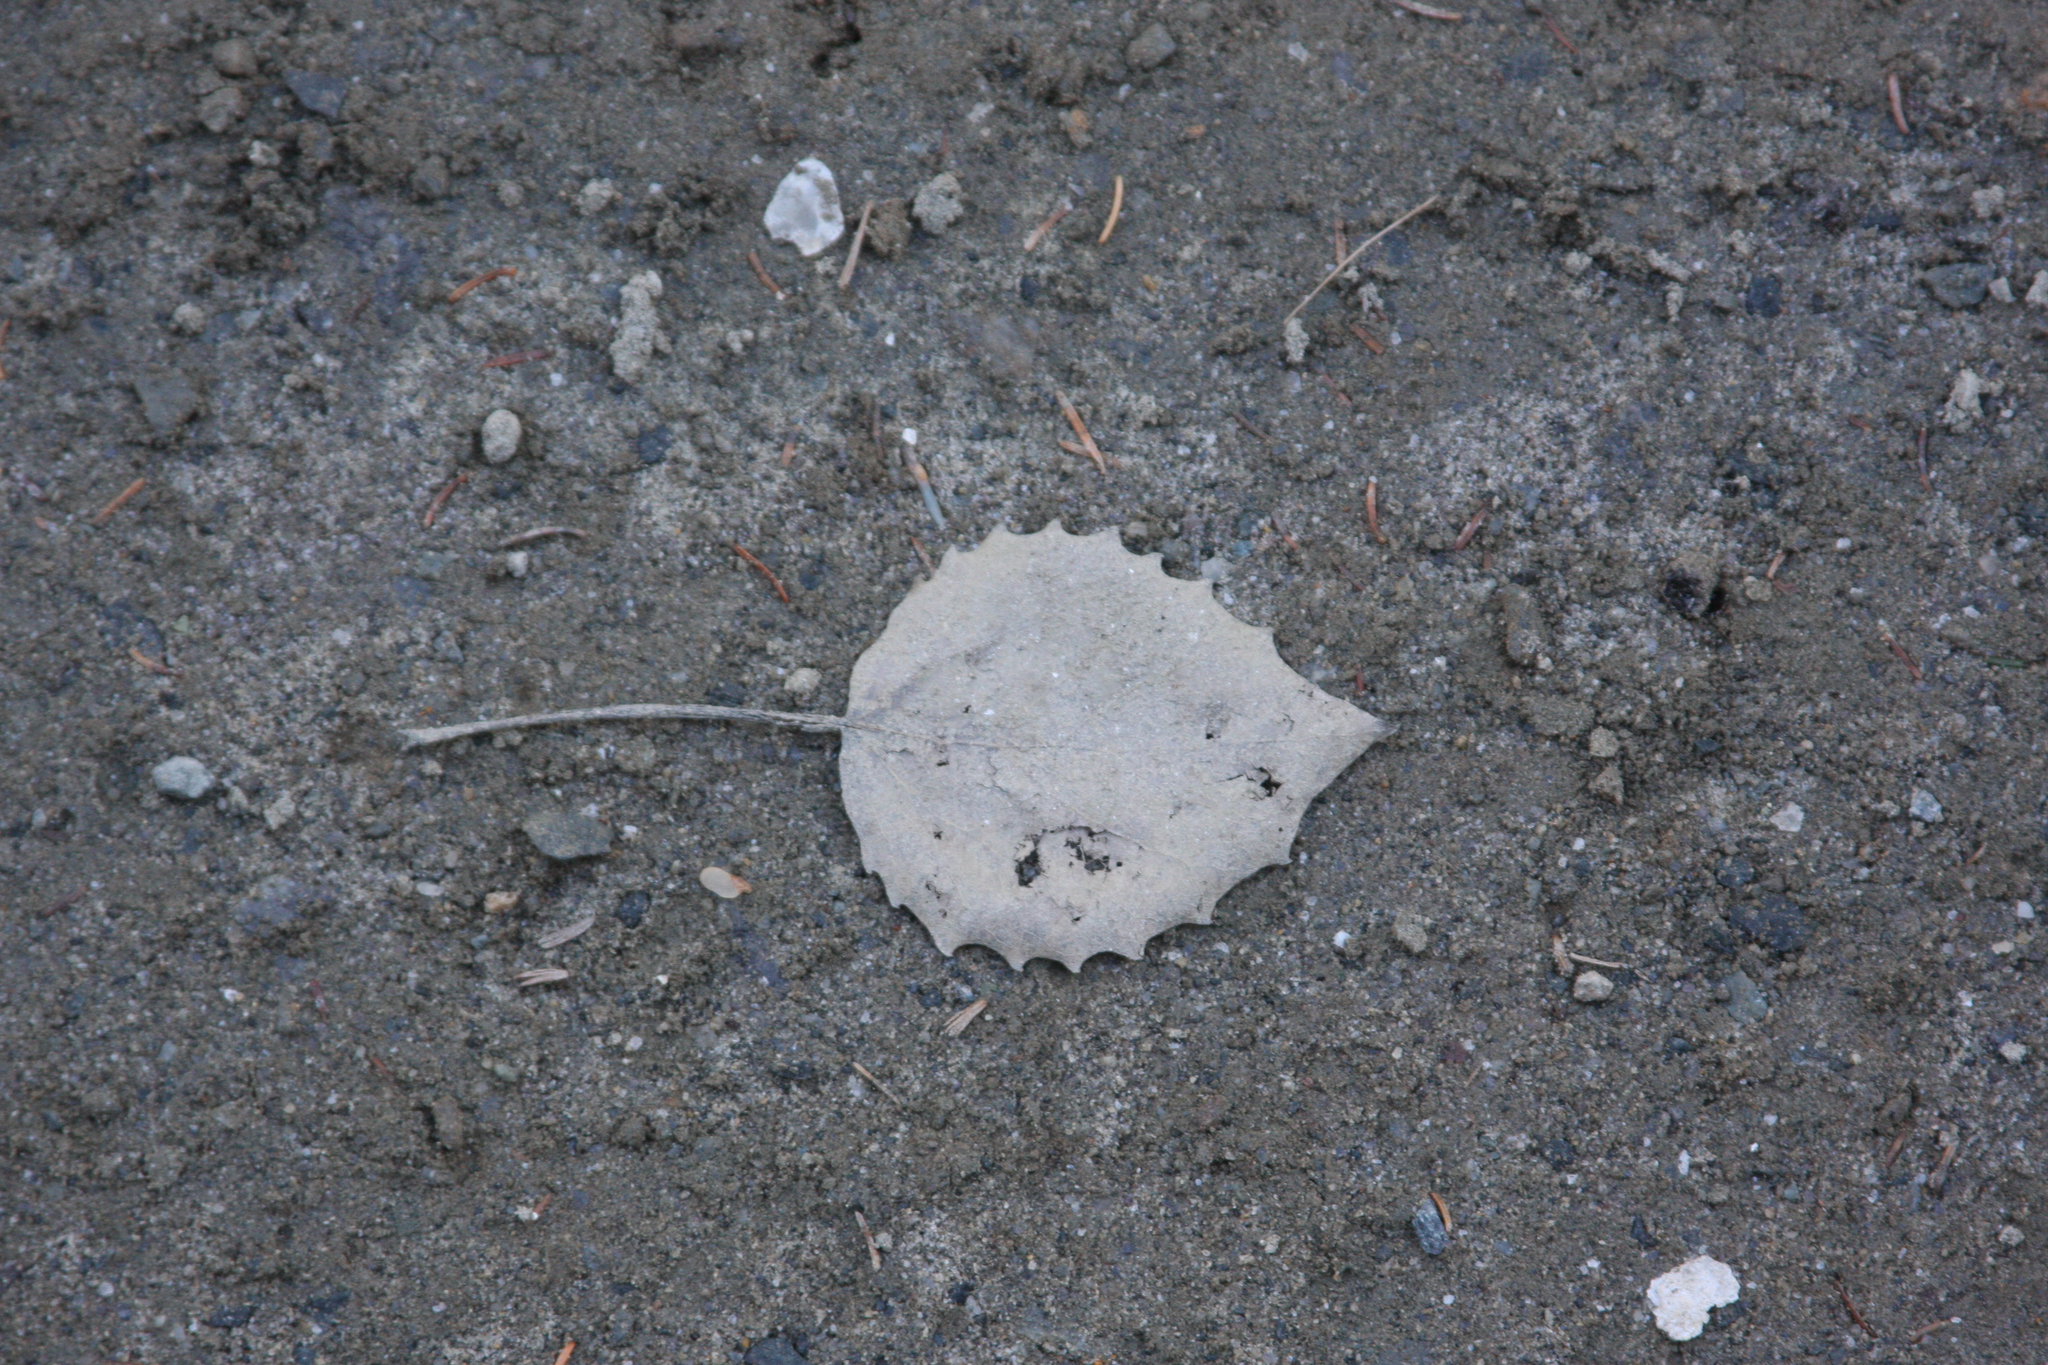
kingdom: Plantae
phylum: Tracheophyta
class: Magnoliopsida
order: Malpighiales
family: Salicaceae
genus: Populus
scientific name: Populus grandidentata
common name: Bigtooth aspen
